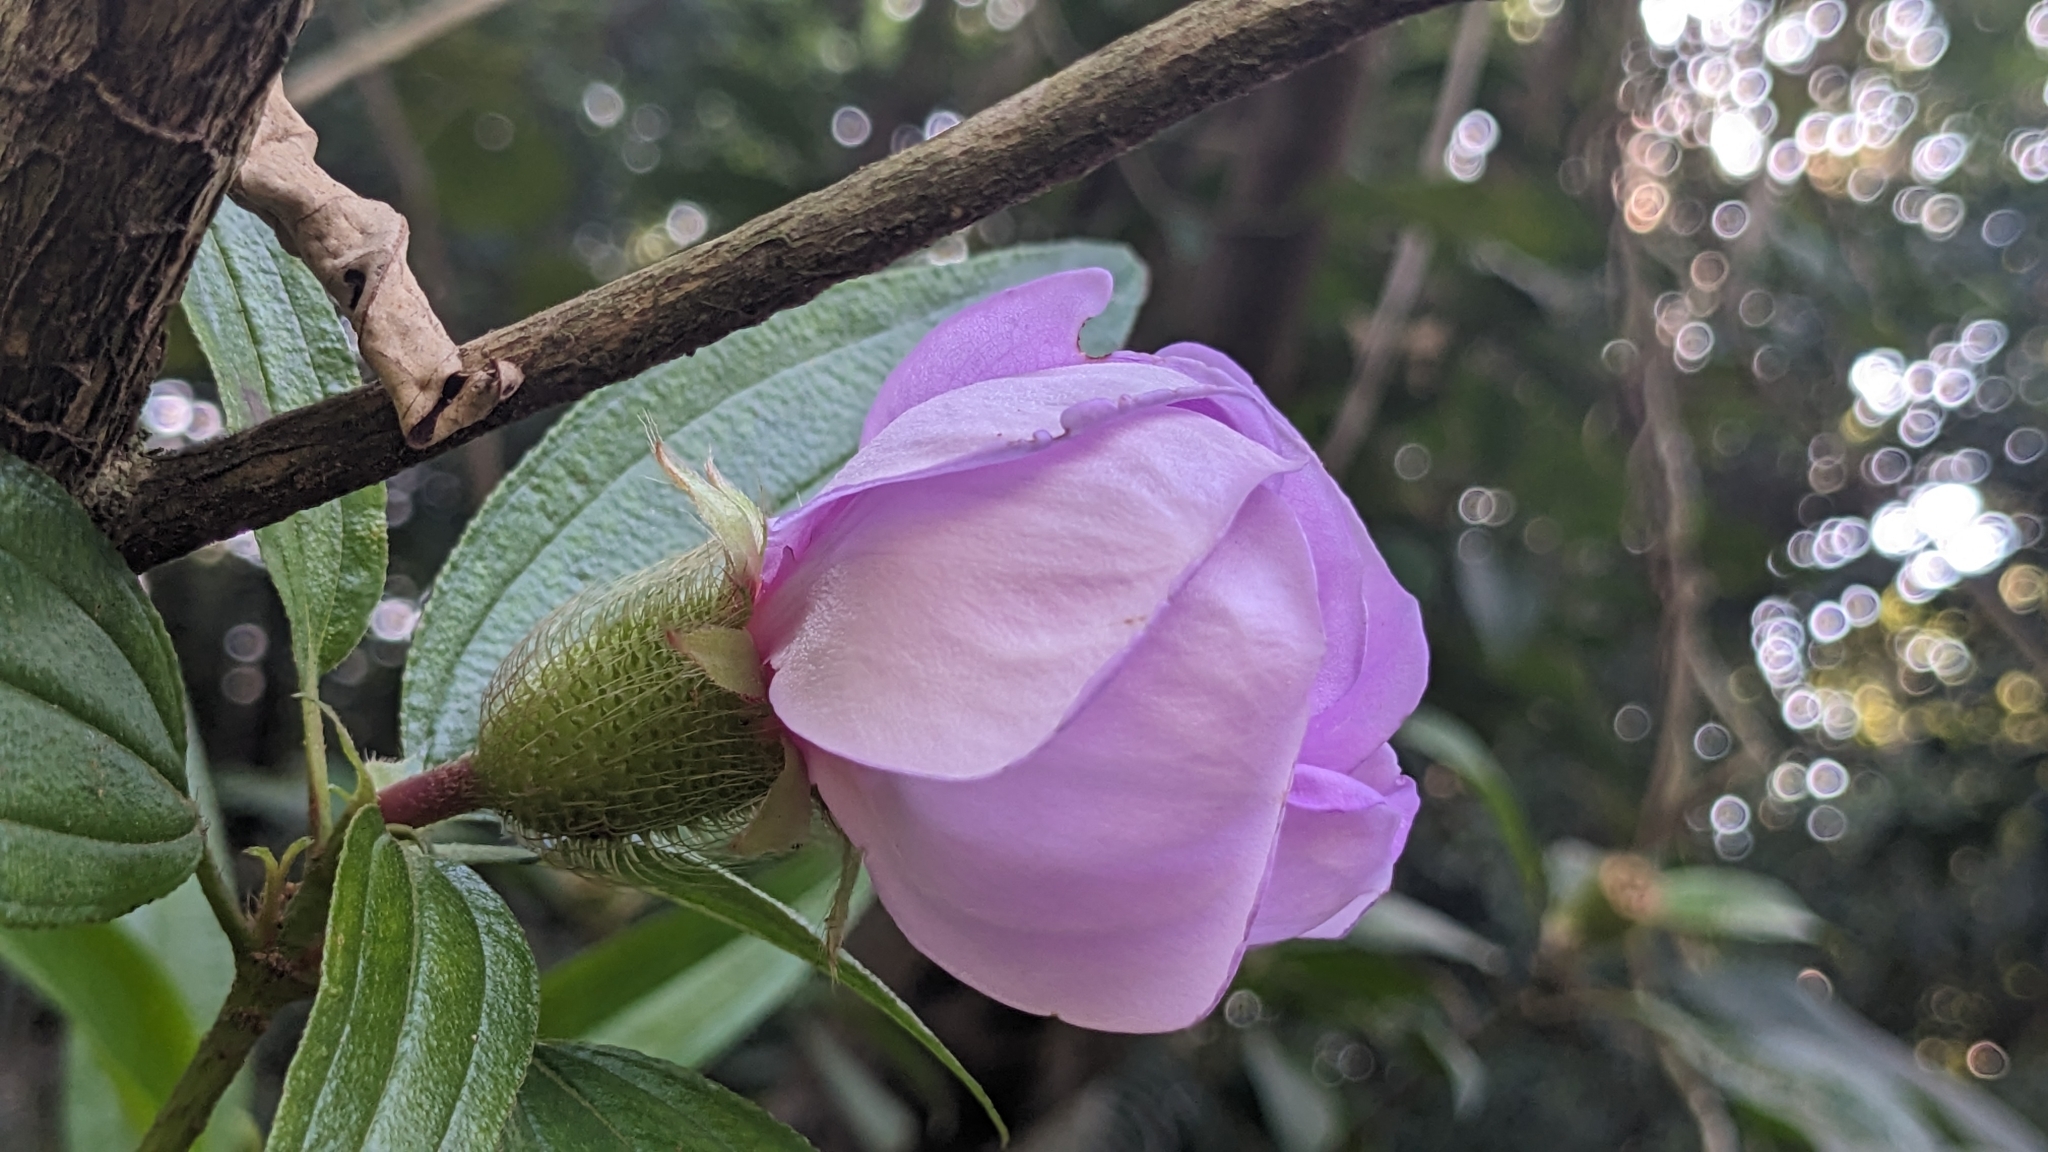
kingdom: Plantae
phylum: Tracheophyta
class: Magnoliopsida
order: Myrtales
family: Melastomataceae
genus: Melastoma
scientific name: Melastoma sanguineum
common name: Red melastome
